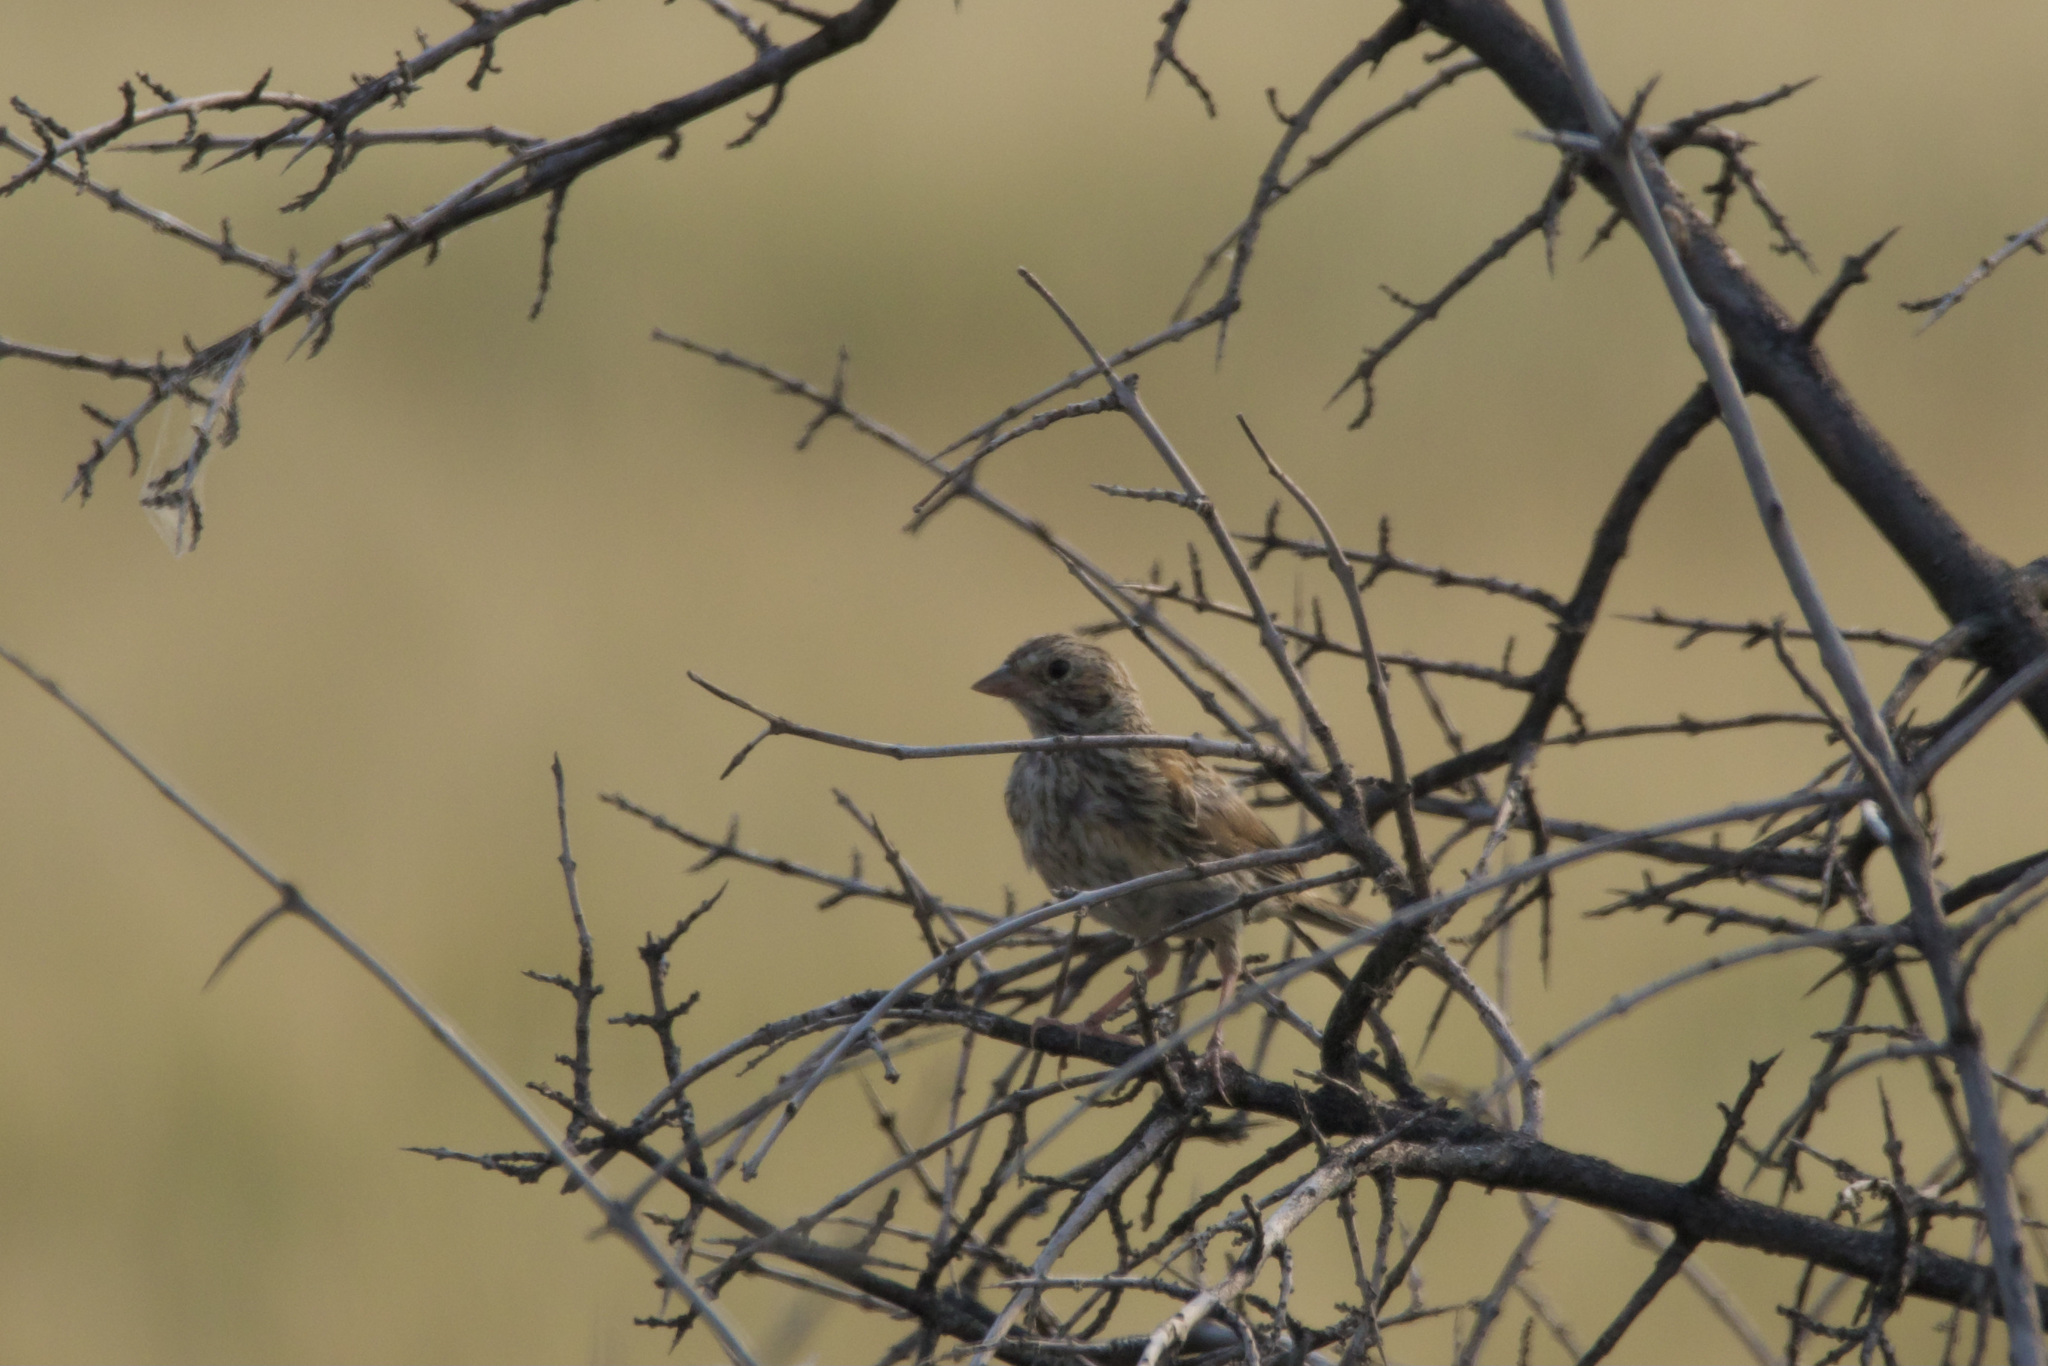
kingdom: Animalia
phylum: Chordata
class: Aves
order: Passeriformes
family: Passerellidae
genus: Pooecetes
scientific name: Pooecetes gramineus
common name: Vesper sparrow
